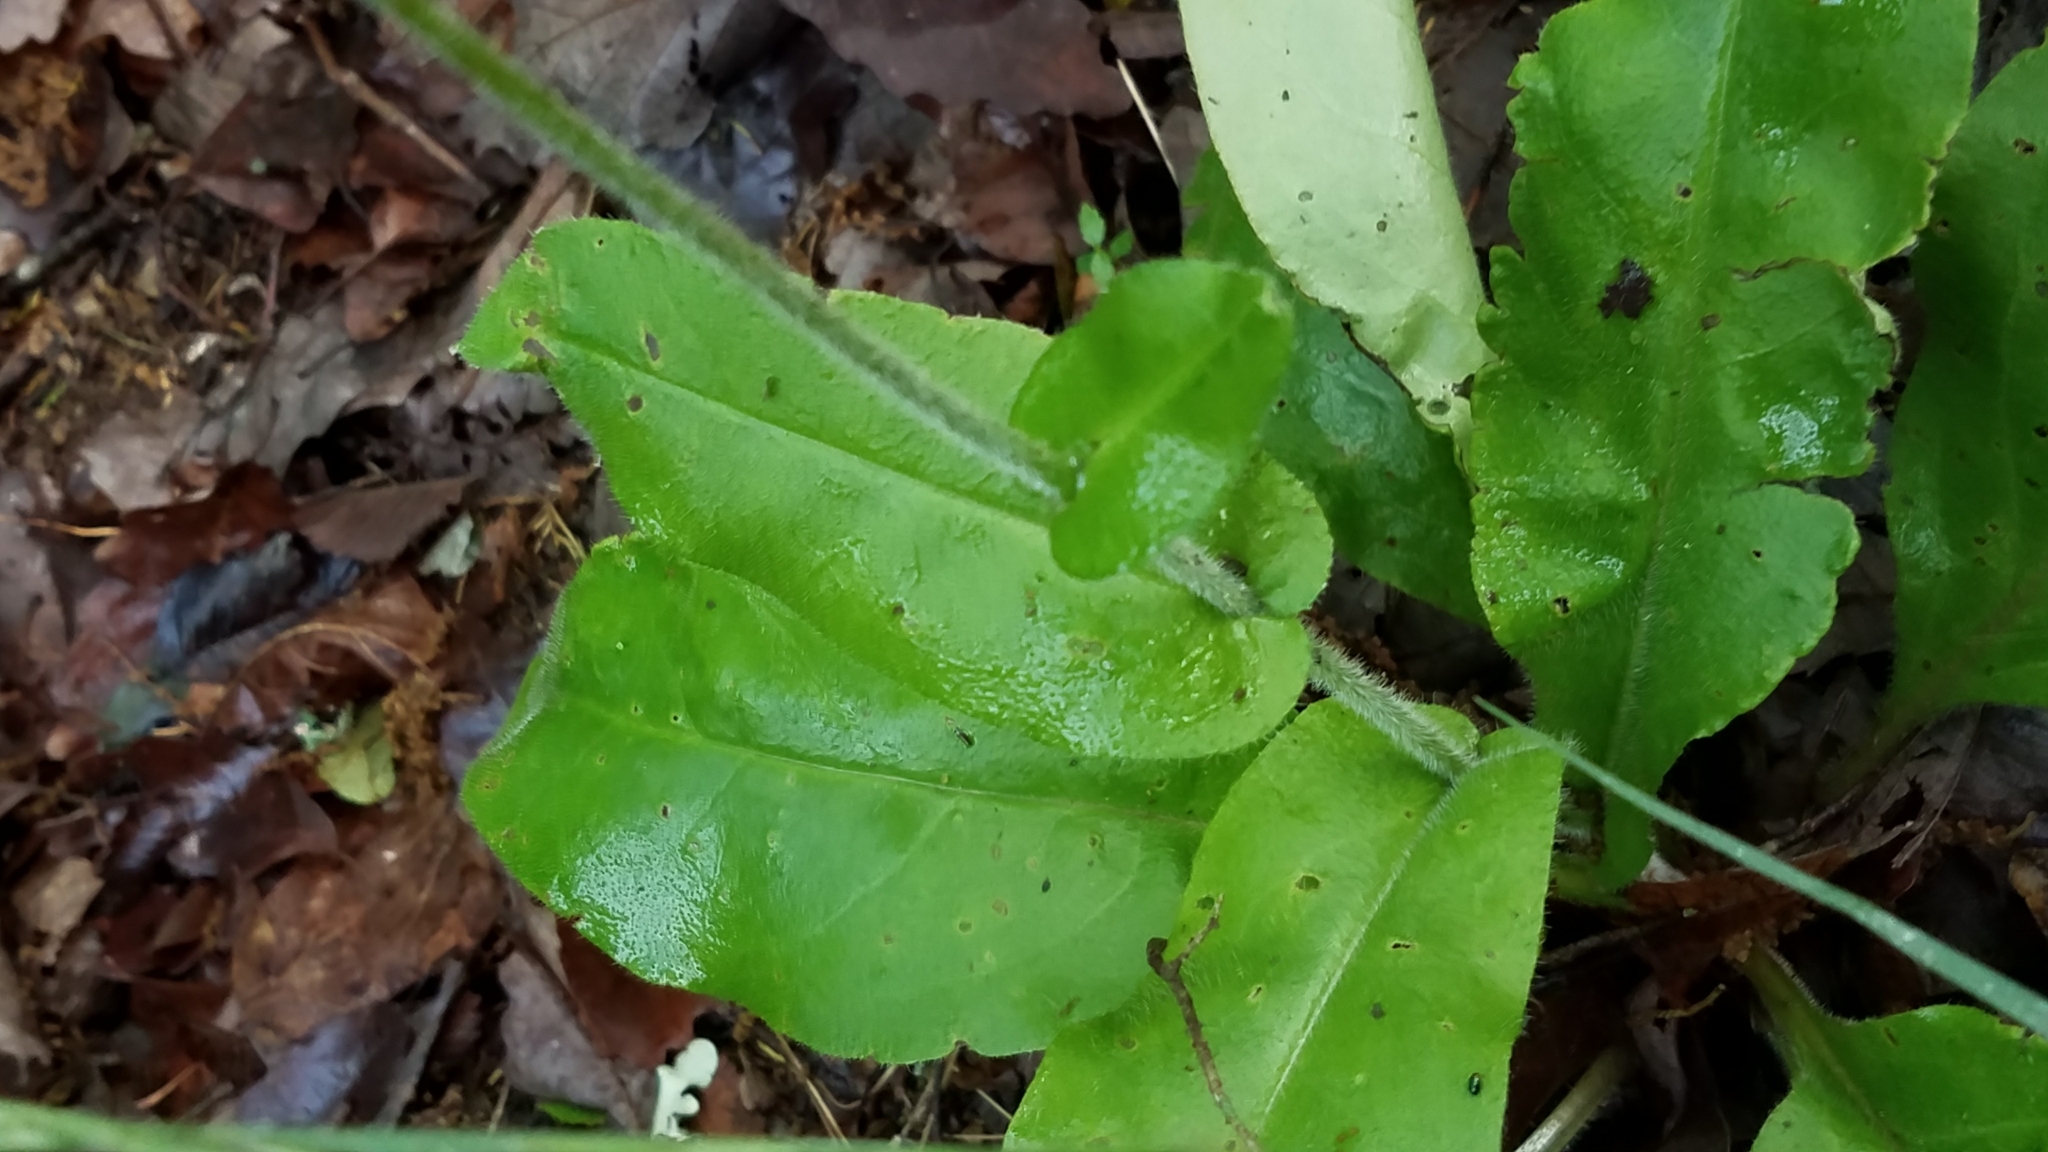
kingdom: Plantae
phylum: Tracheophyta
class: Magnoliopsida
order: Boraginales
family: Boraginaceae
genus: Andersonglossum
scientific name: Andersonglossum virginianum
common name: Wild comfrey
